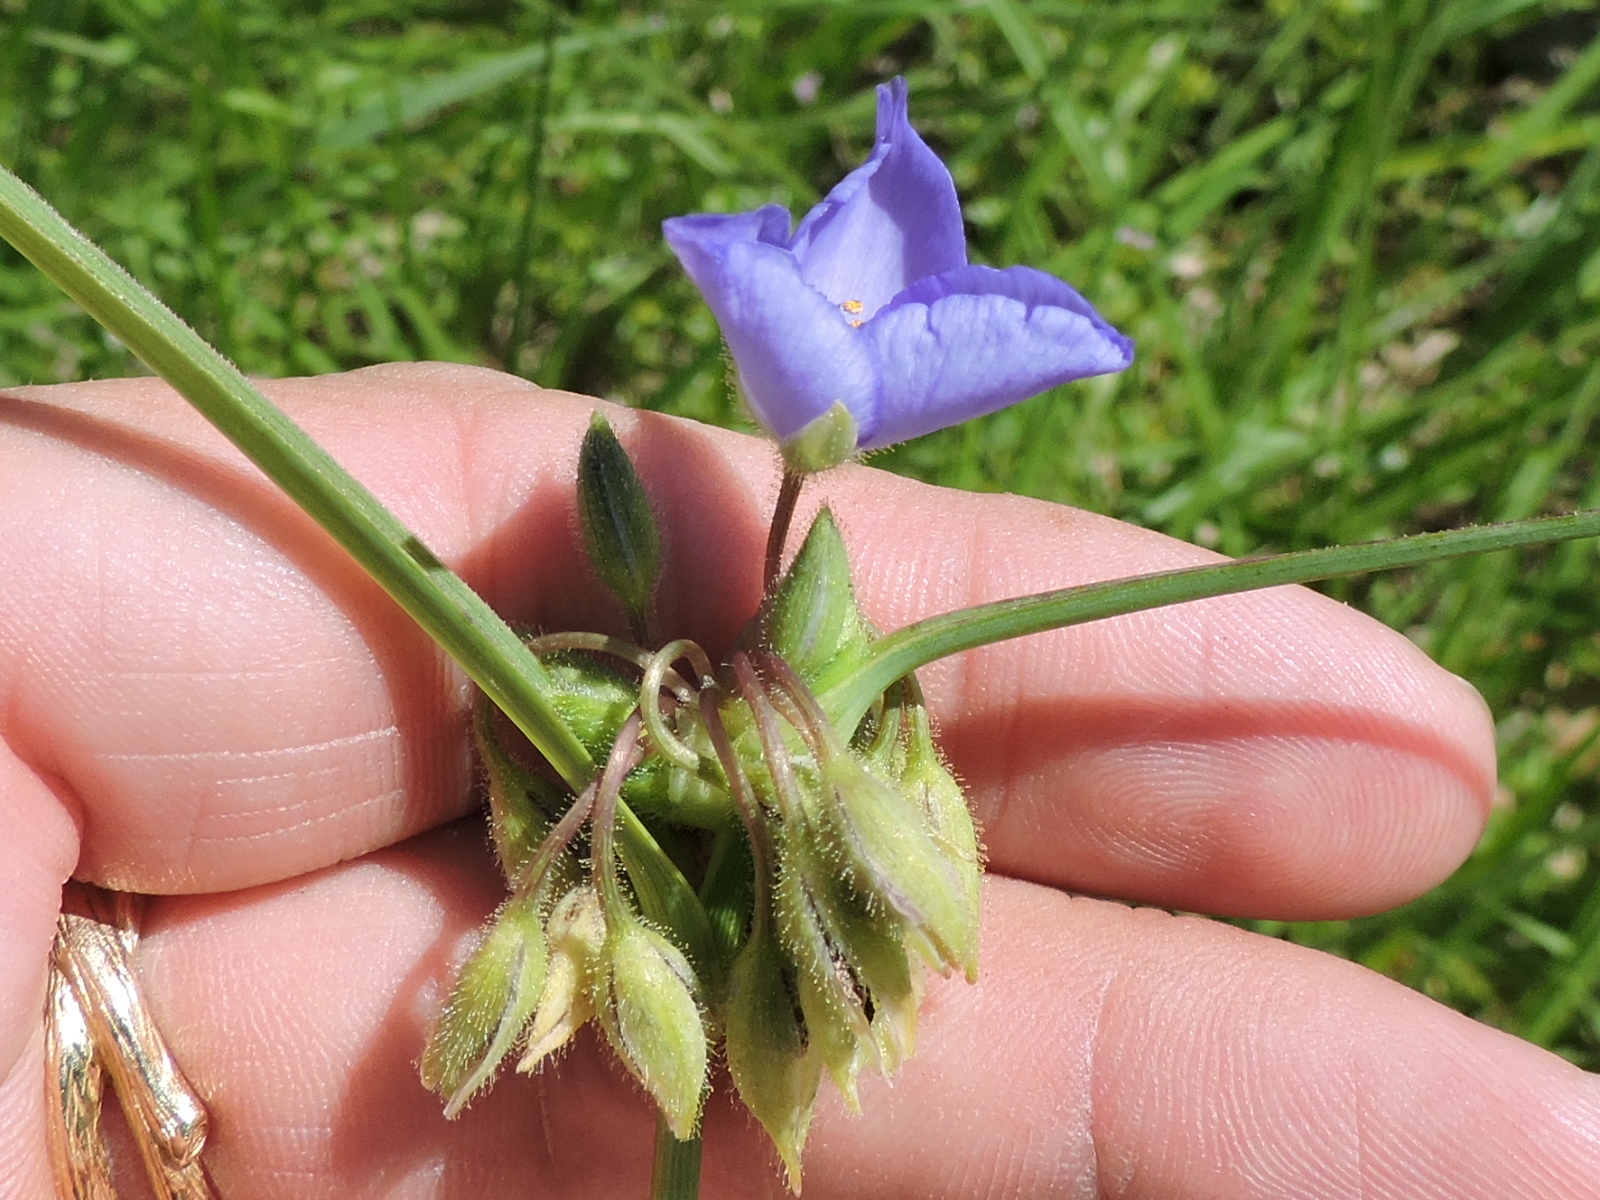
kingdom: Plantae
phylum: Tracheophyta
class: Liliopsida
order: Commelinales
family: Commelinaceae
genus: Tradescantia
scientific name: Tradescantia occidentalis
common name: Prairie spiderwort
